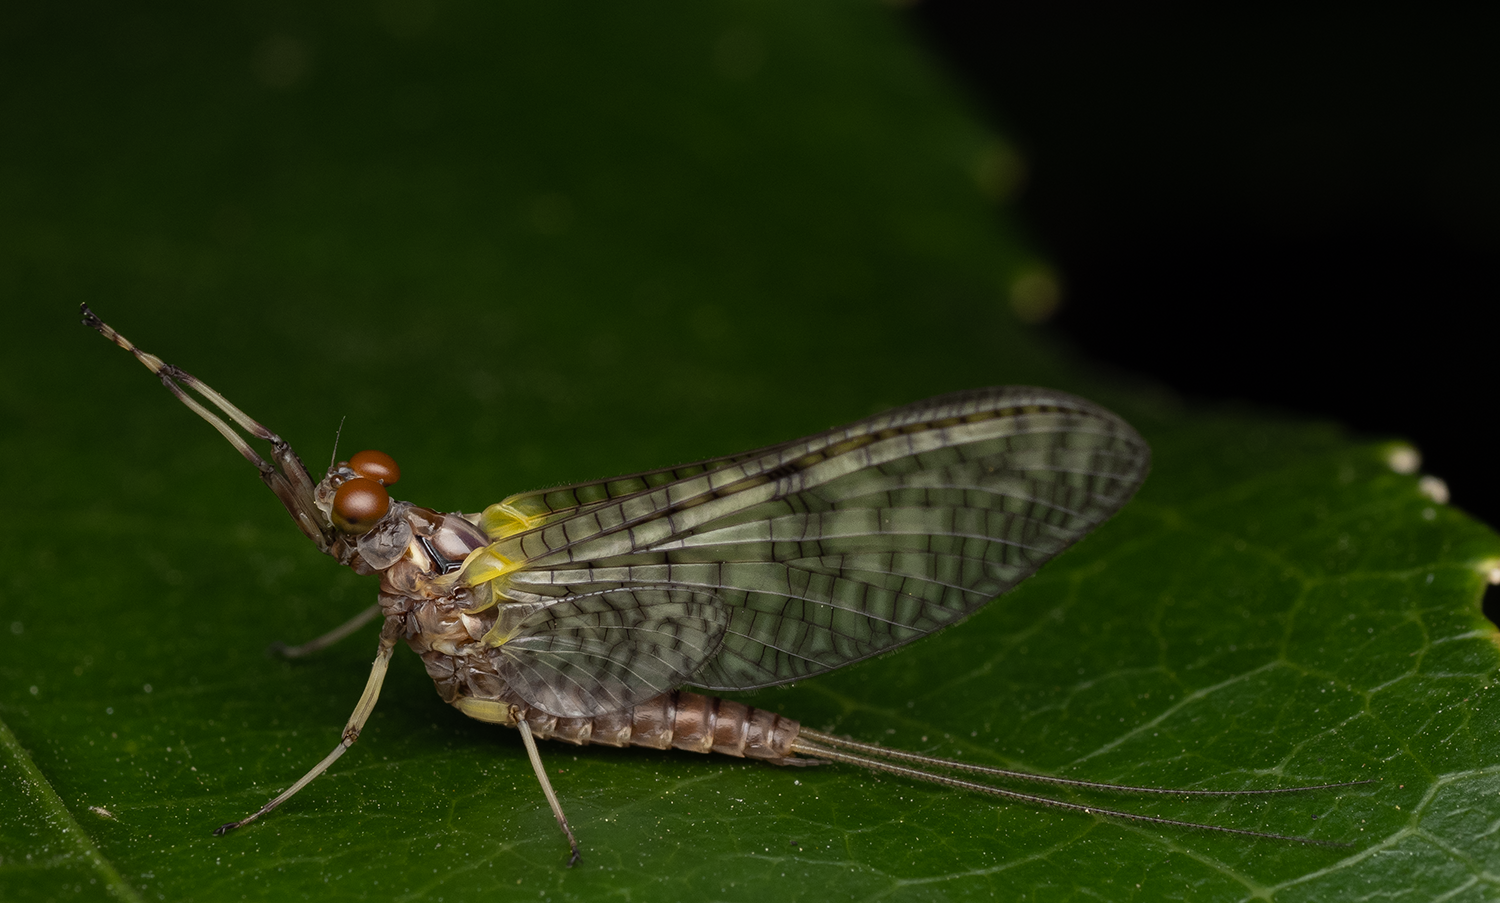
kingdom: Animalia
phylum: Arthropoda
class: Insecta
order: Ephemeroptera
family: Coloburiscidae
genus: Coloburiscus
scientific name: Coloburiscus humeralis
